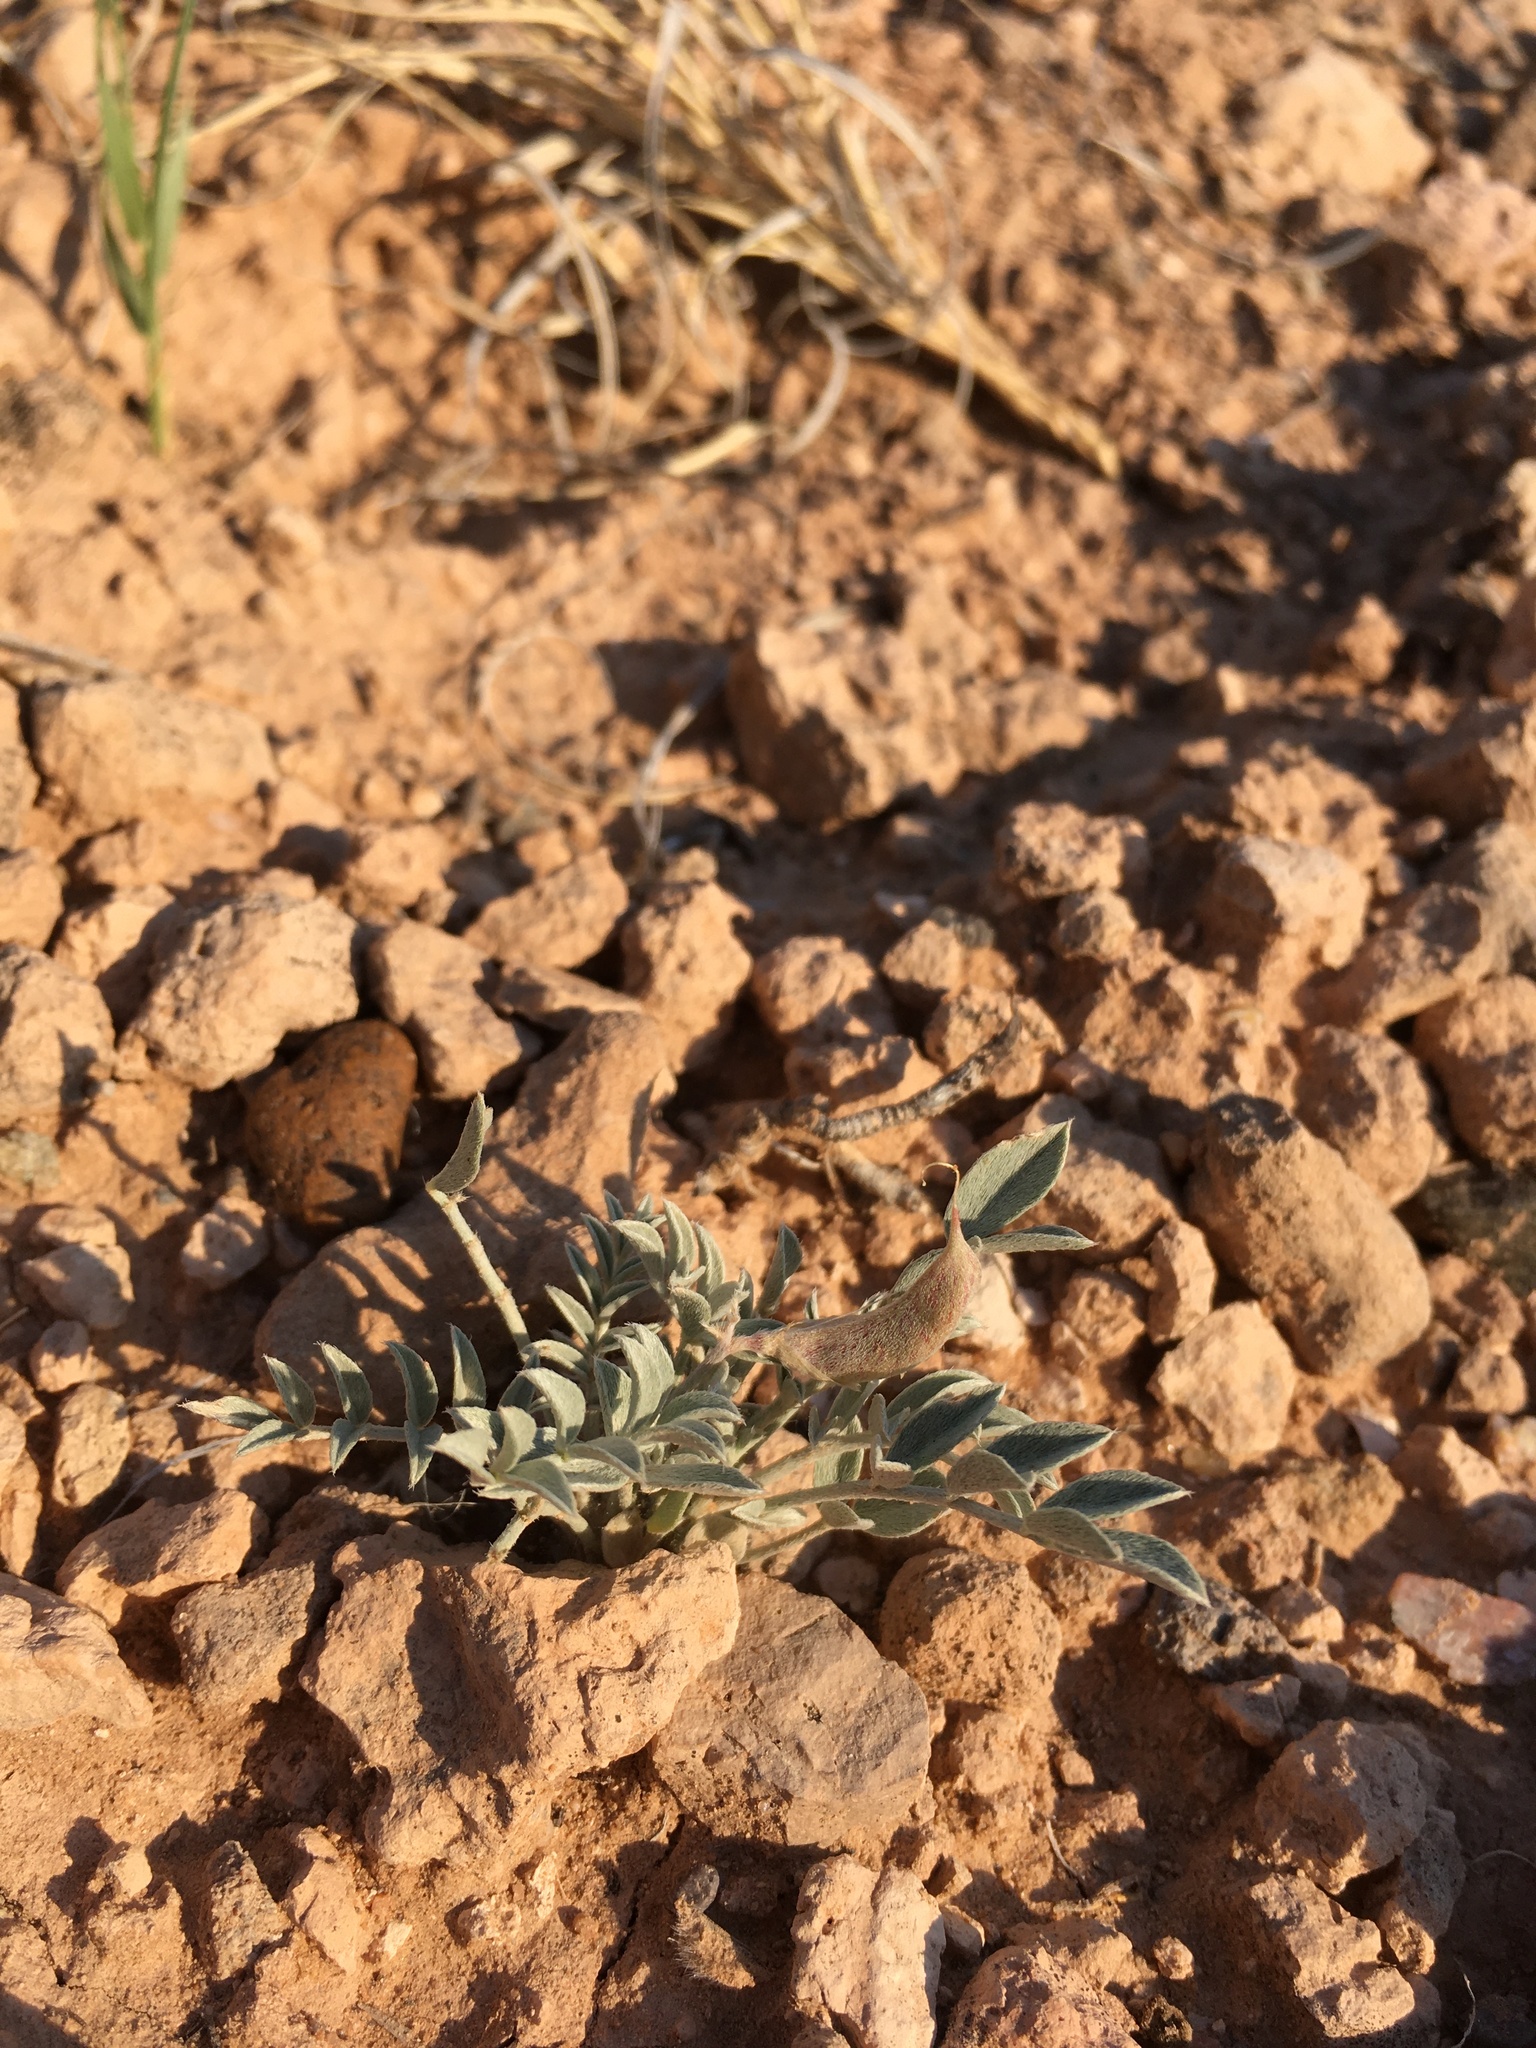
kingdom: Plantae
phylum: Tracheophyta
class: Magnoliopsida
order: Fabales
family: Fabaceae
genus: Astragalus
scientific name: Astragalus missouriensis
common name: Missouri milk-vetch
